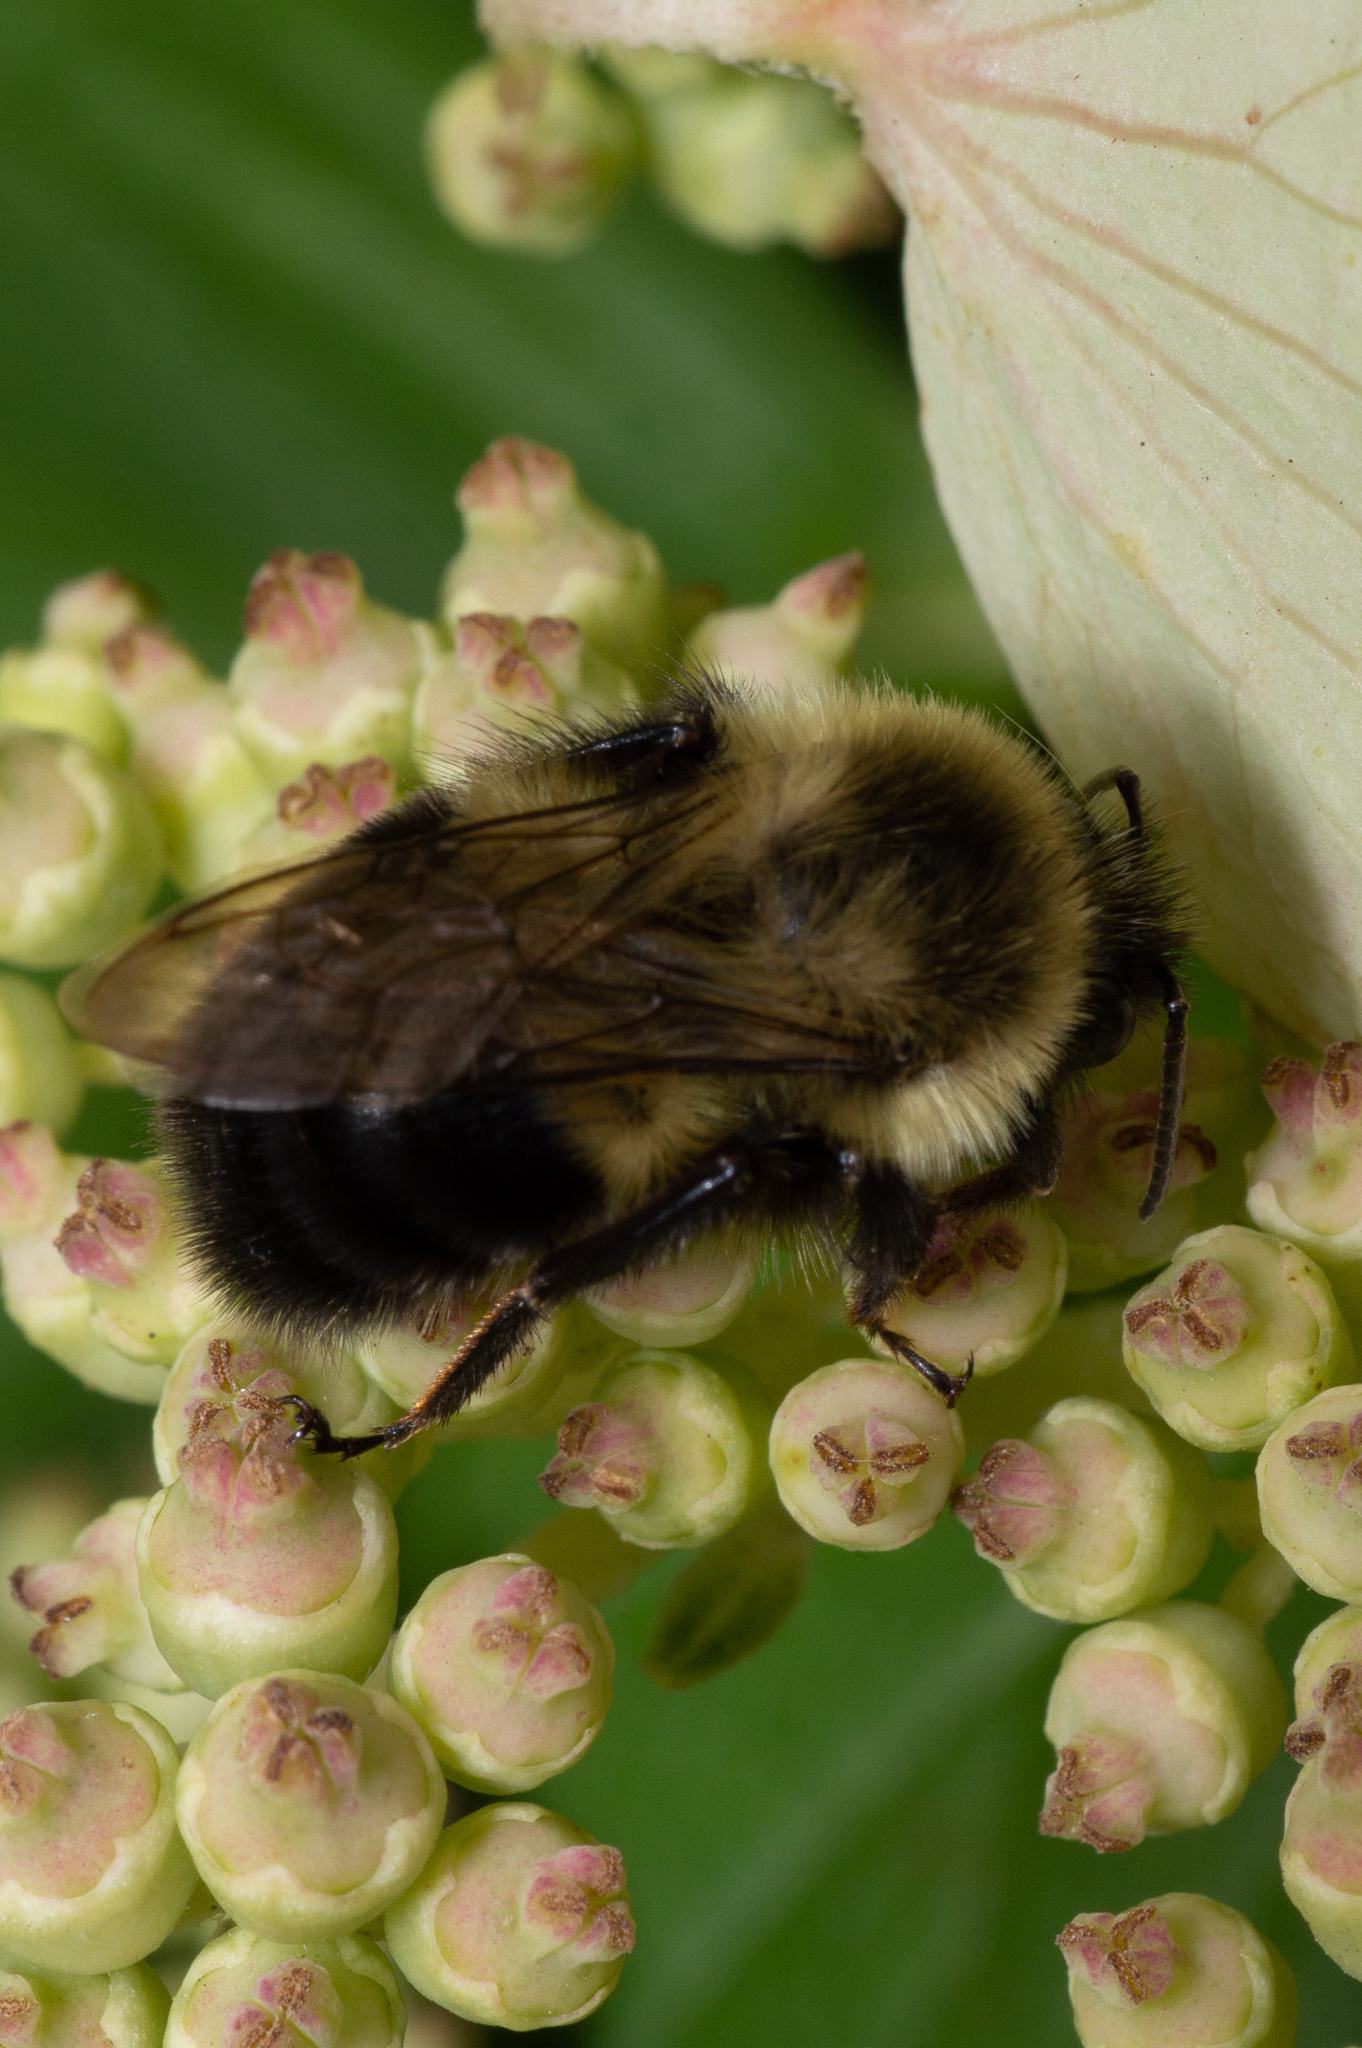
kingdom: Animalia
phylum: Arthropoda
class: Insecta
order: Hymenoptera
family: Apidae
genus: Bombus
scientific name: Bombus impatiens
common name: Common eastern bumble bee
